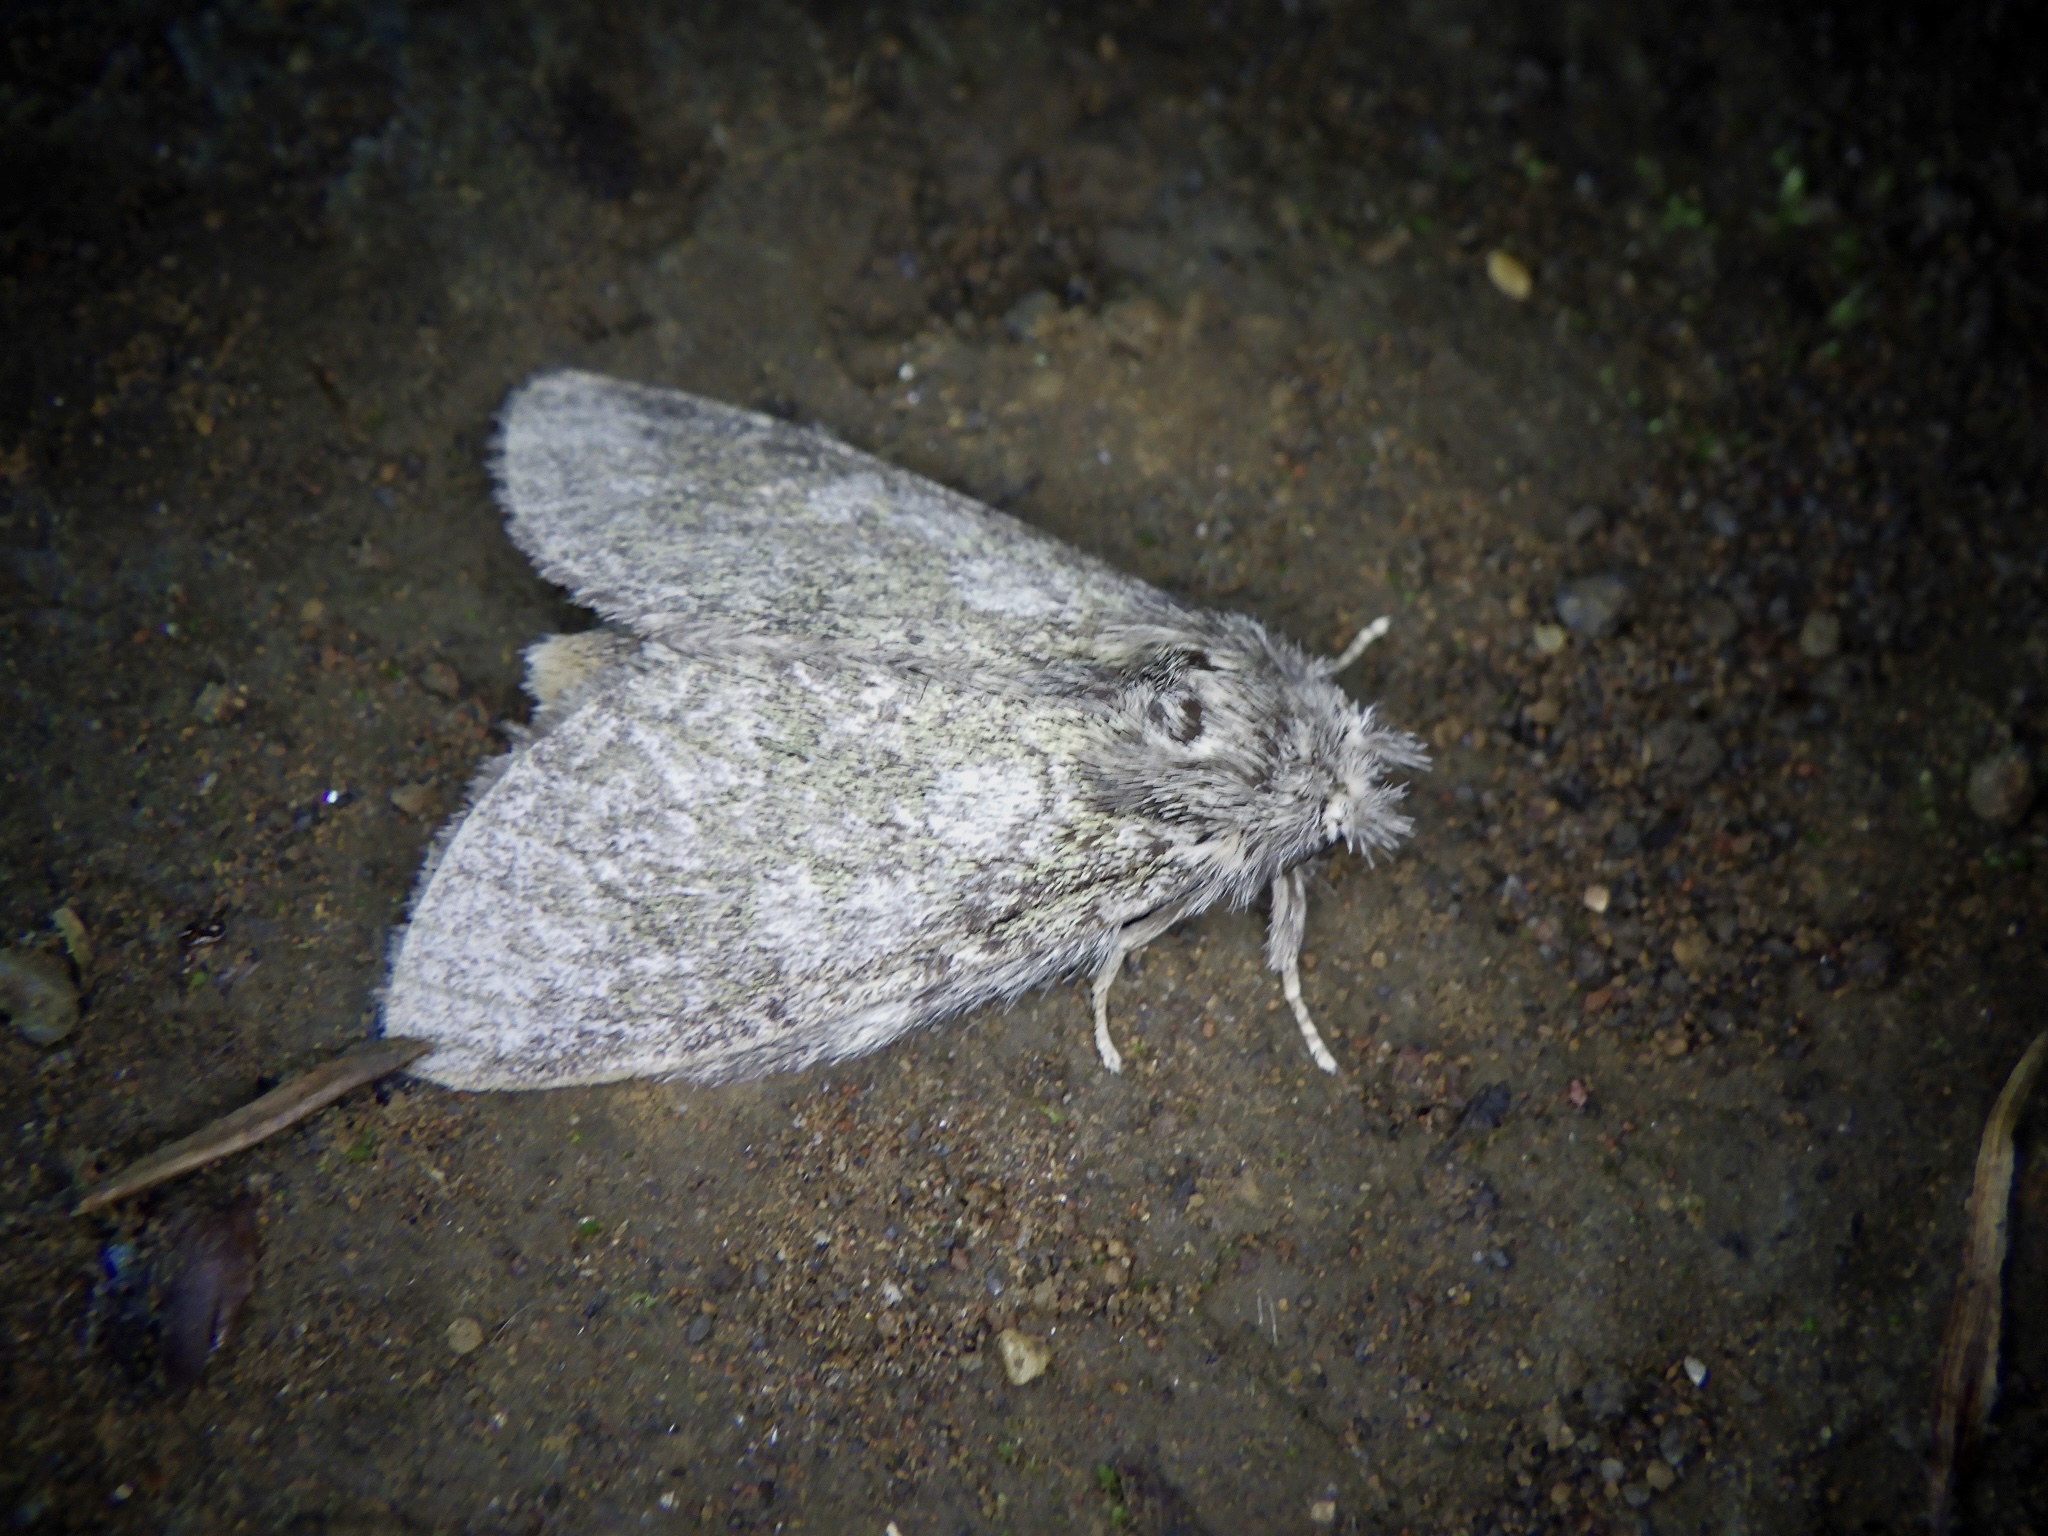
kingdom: Animalia
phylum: Arthropoda
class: Insecta
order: Lepidoptera
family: Notodontidae
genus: Syntypistis
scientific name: Syntypistis
